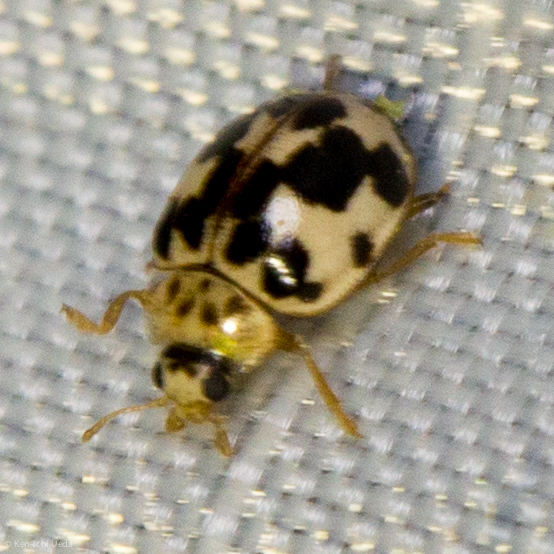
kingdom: Animalia
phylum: Arthropoda
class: Insecta
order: Coleoptera
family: Coccinellidae
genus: Psyllobora
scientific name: Psyllobora borealis
